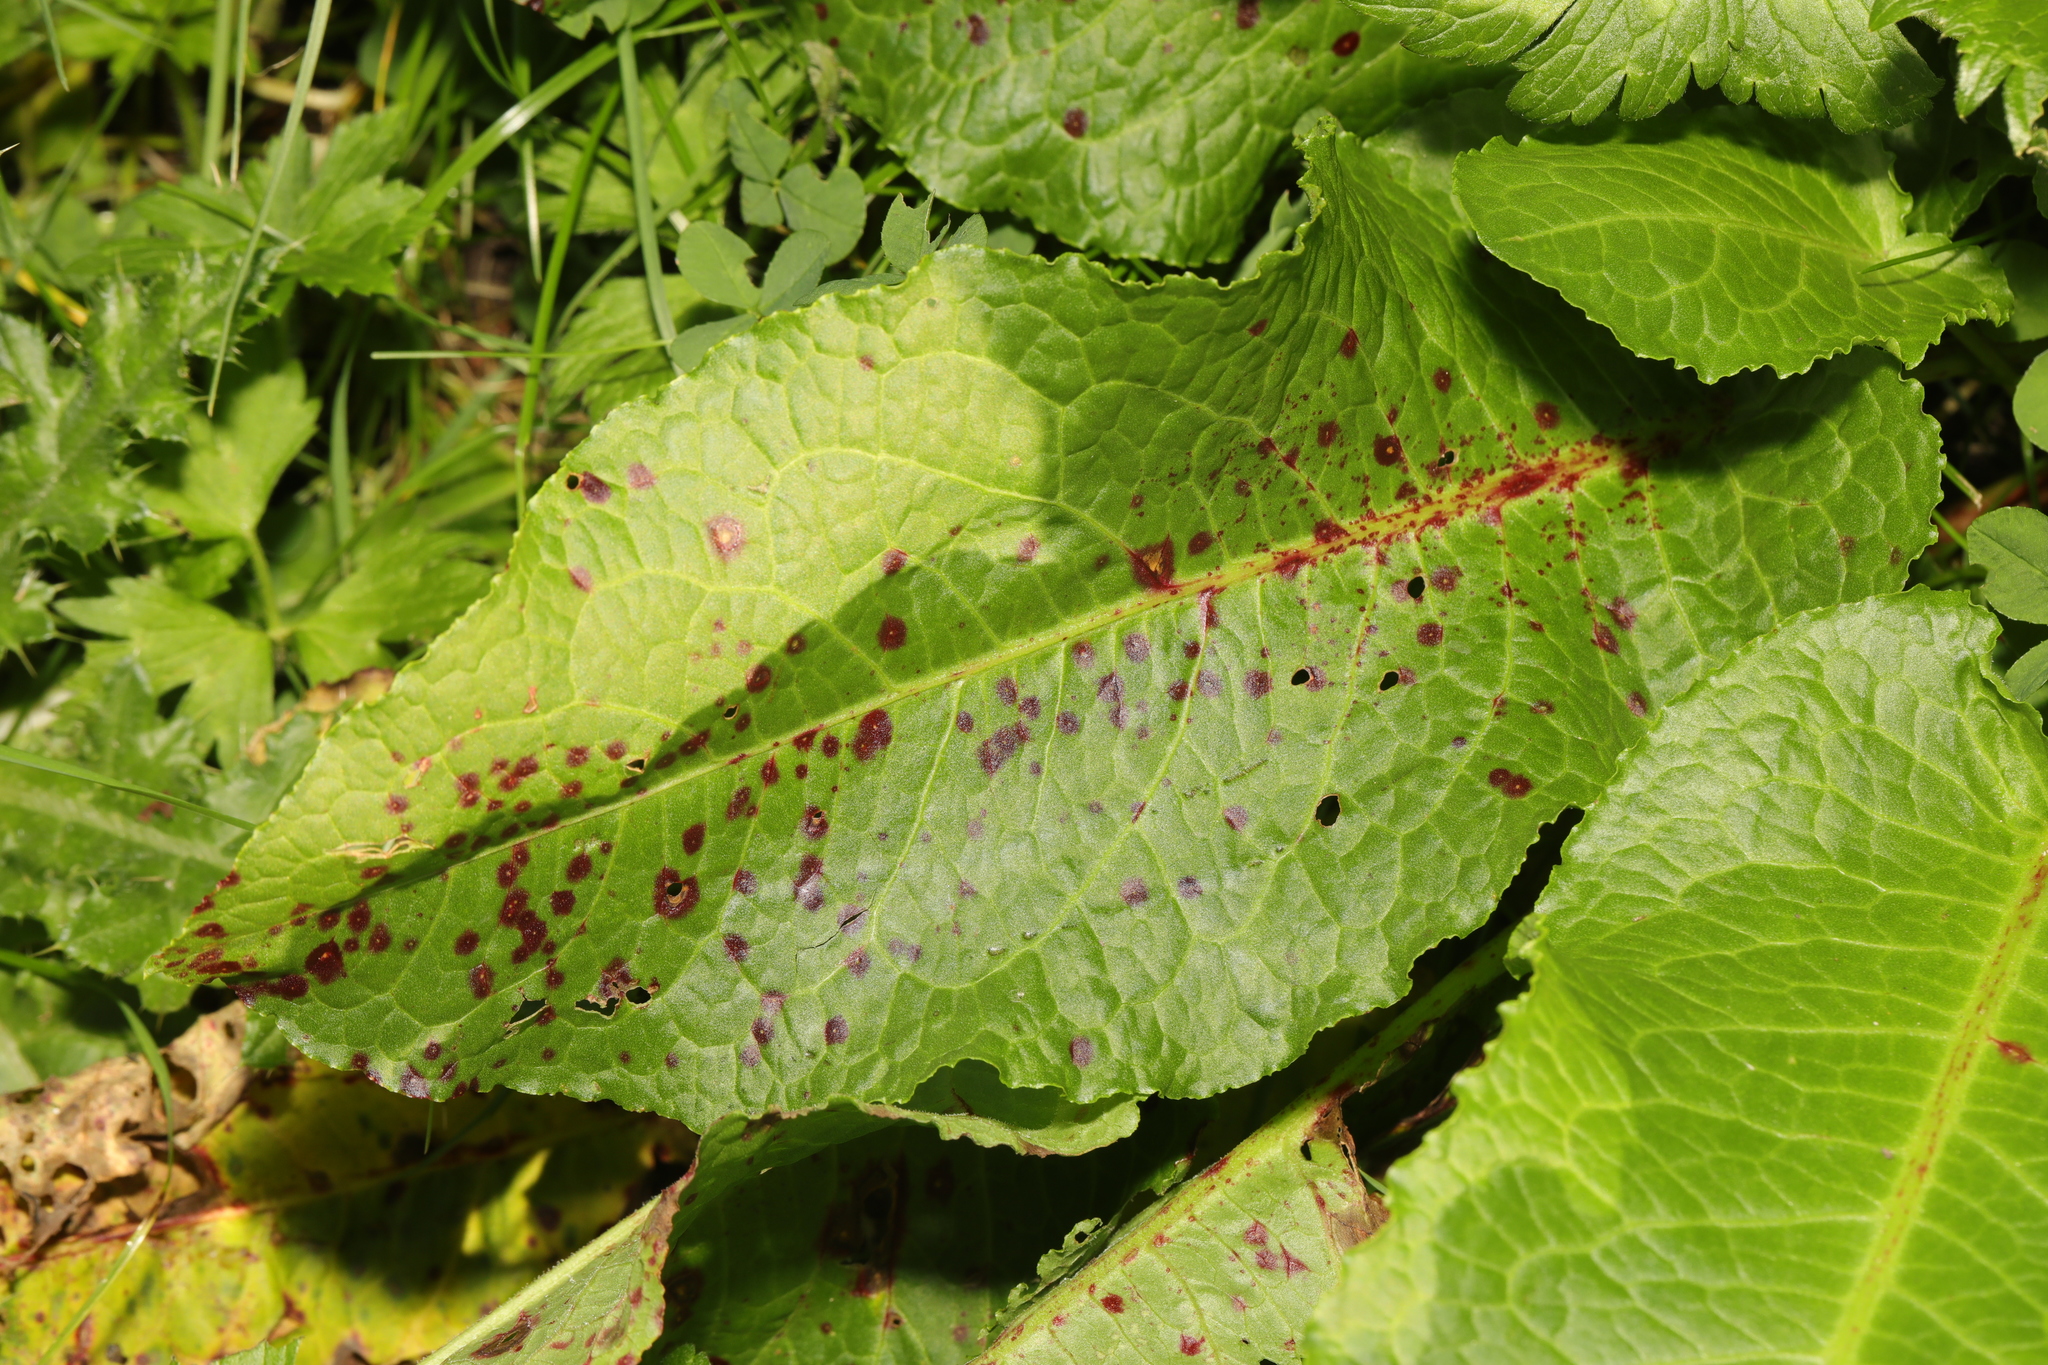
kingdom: Plantae
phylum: Tracheophyta
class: Magnoliopsida
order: Caryophyllales
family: Polygonaceae
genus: Rumex
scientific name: Rumex obtusifolius
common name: Bitter dock
